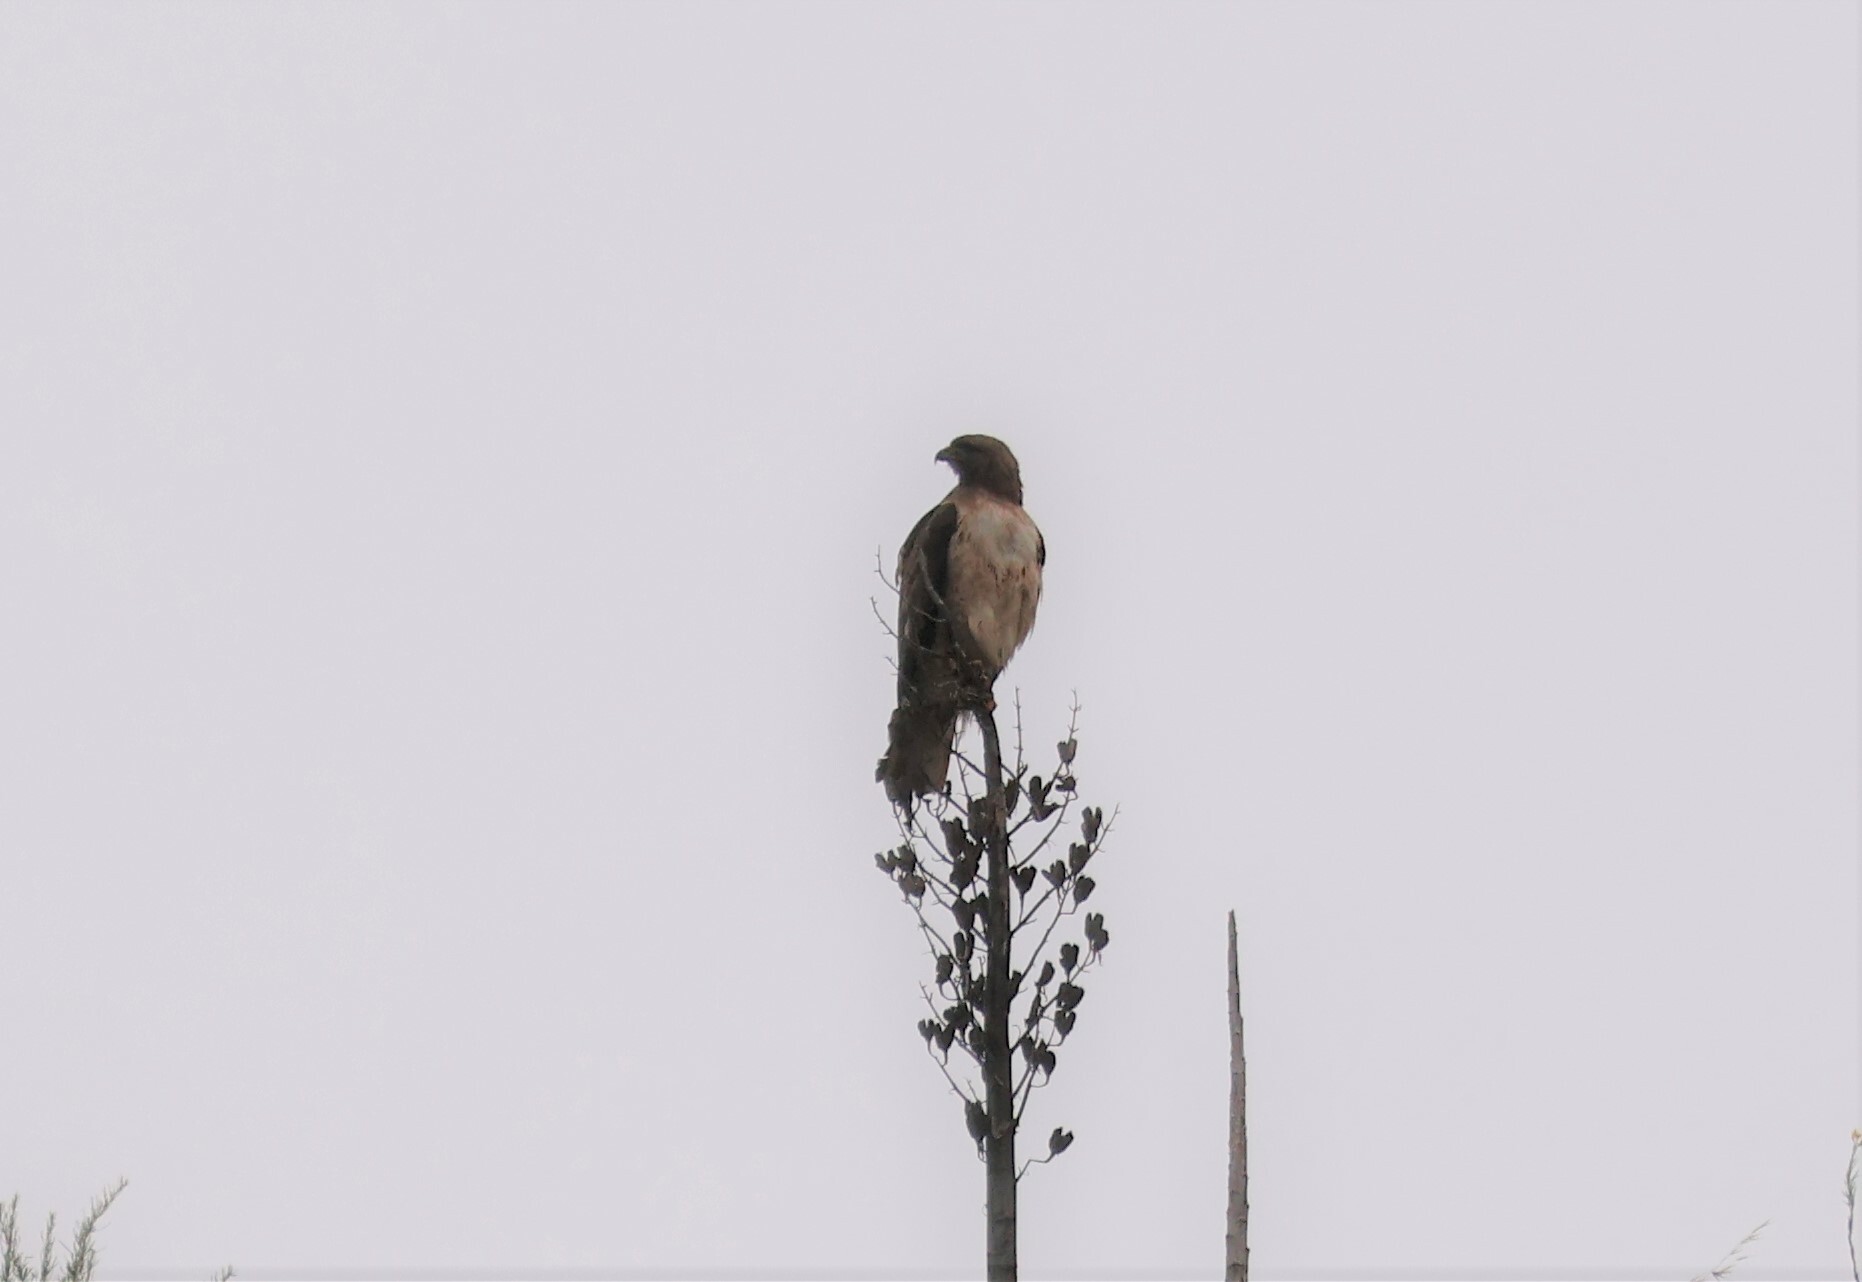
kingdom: Animalia
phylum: Chordata
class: Aves
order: Accipitriformes
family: Accipitridae
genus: Buteo
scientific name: Buteo jamaicensis
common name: Red-tailed hawk
